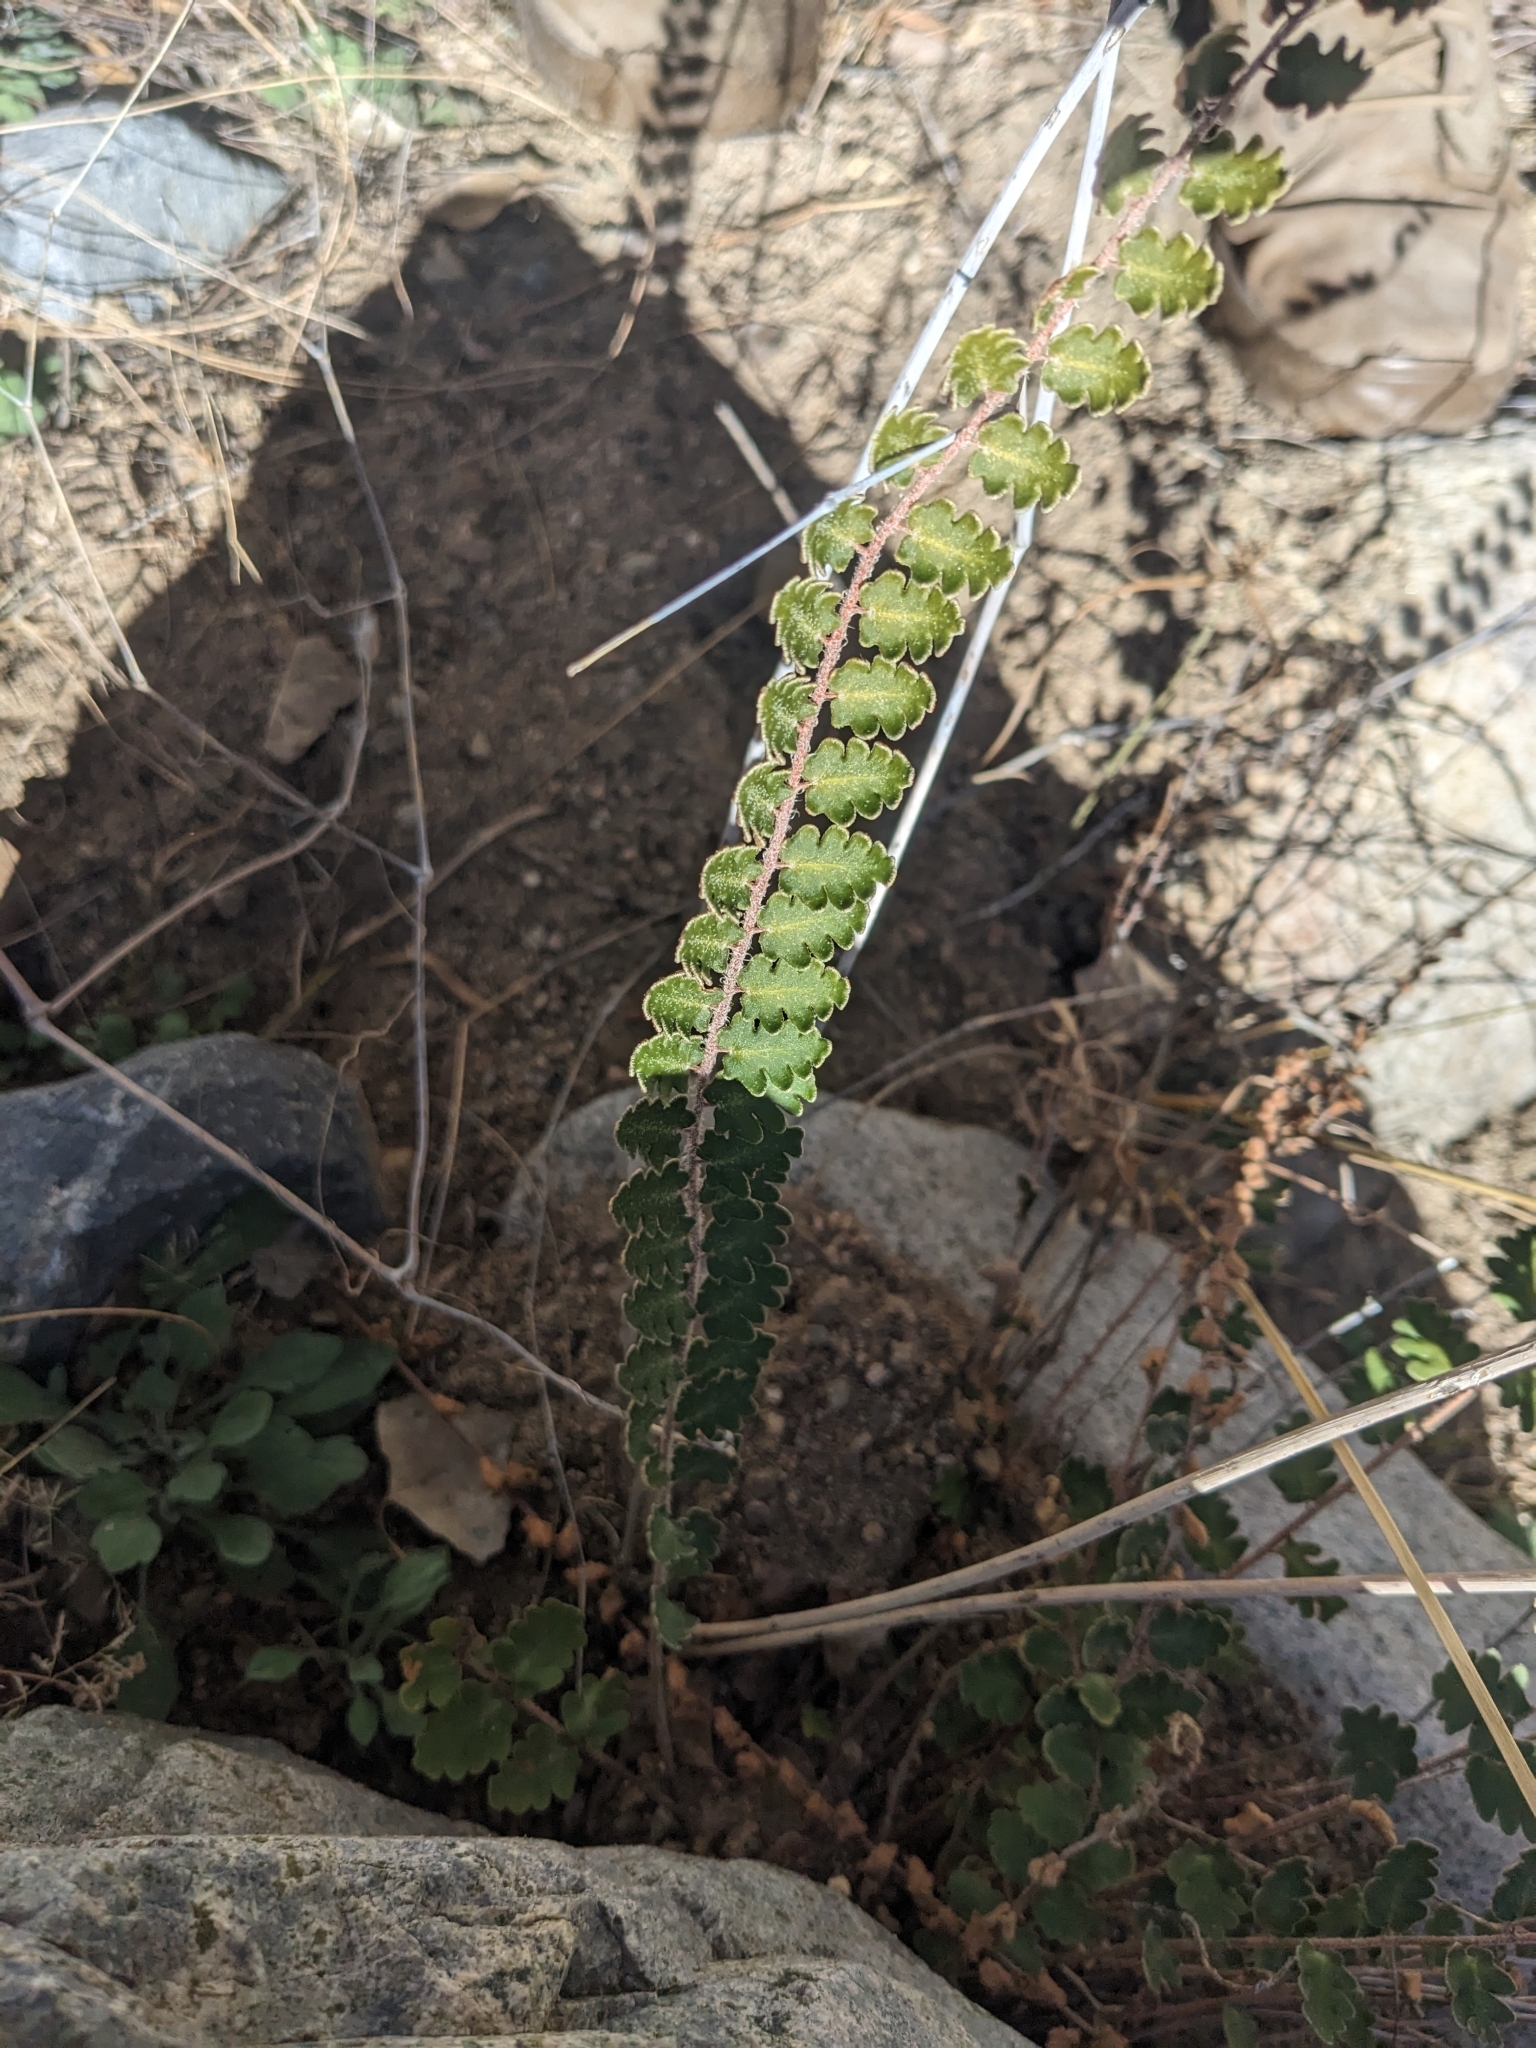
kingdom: Plantae
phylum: Tracheophyta
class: Polypodiopsida
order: Polypodiales
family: Pteridaceae
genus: Astrolepis
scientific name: Astrolepis sinuata
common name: Wavy scaly cloakfern
